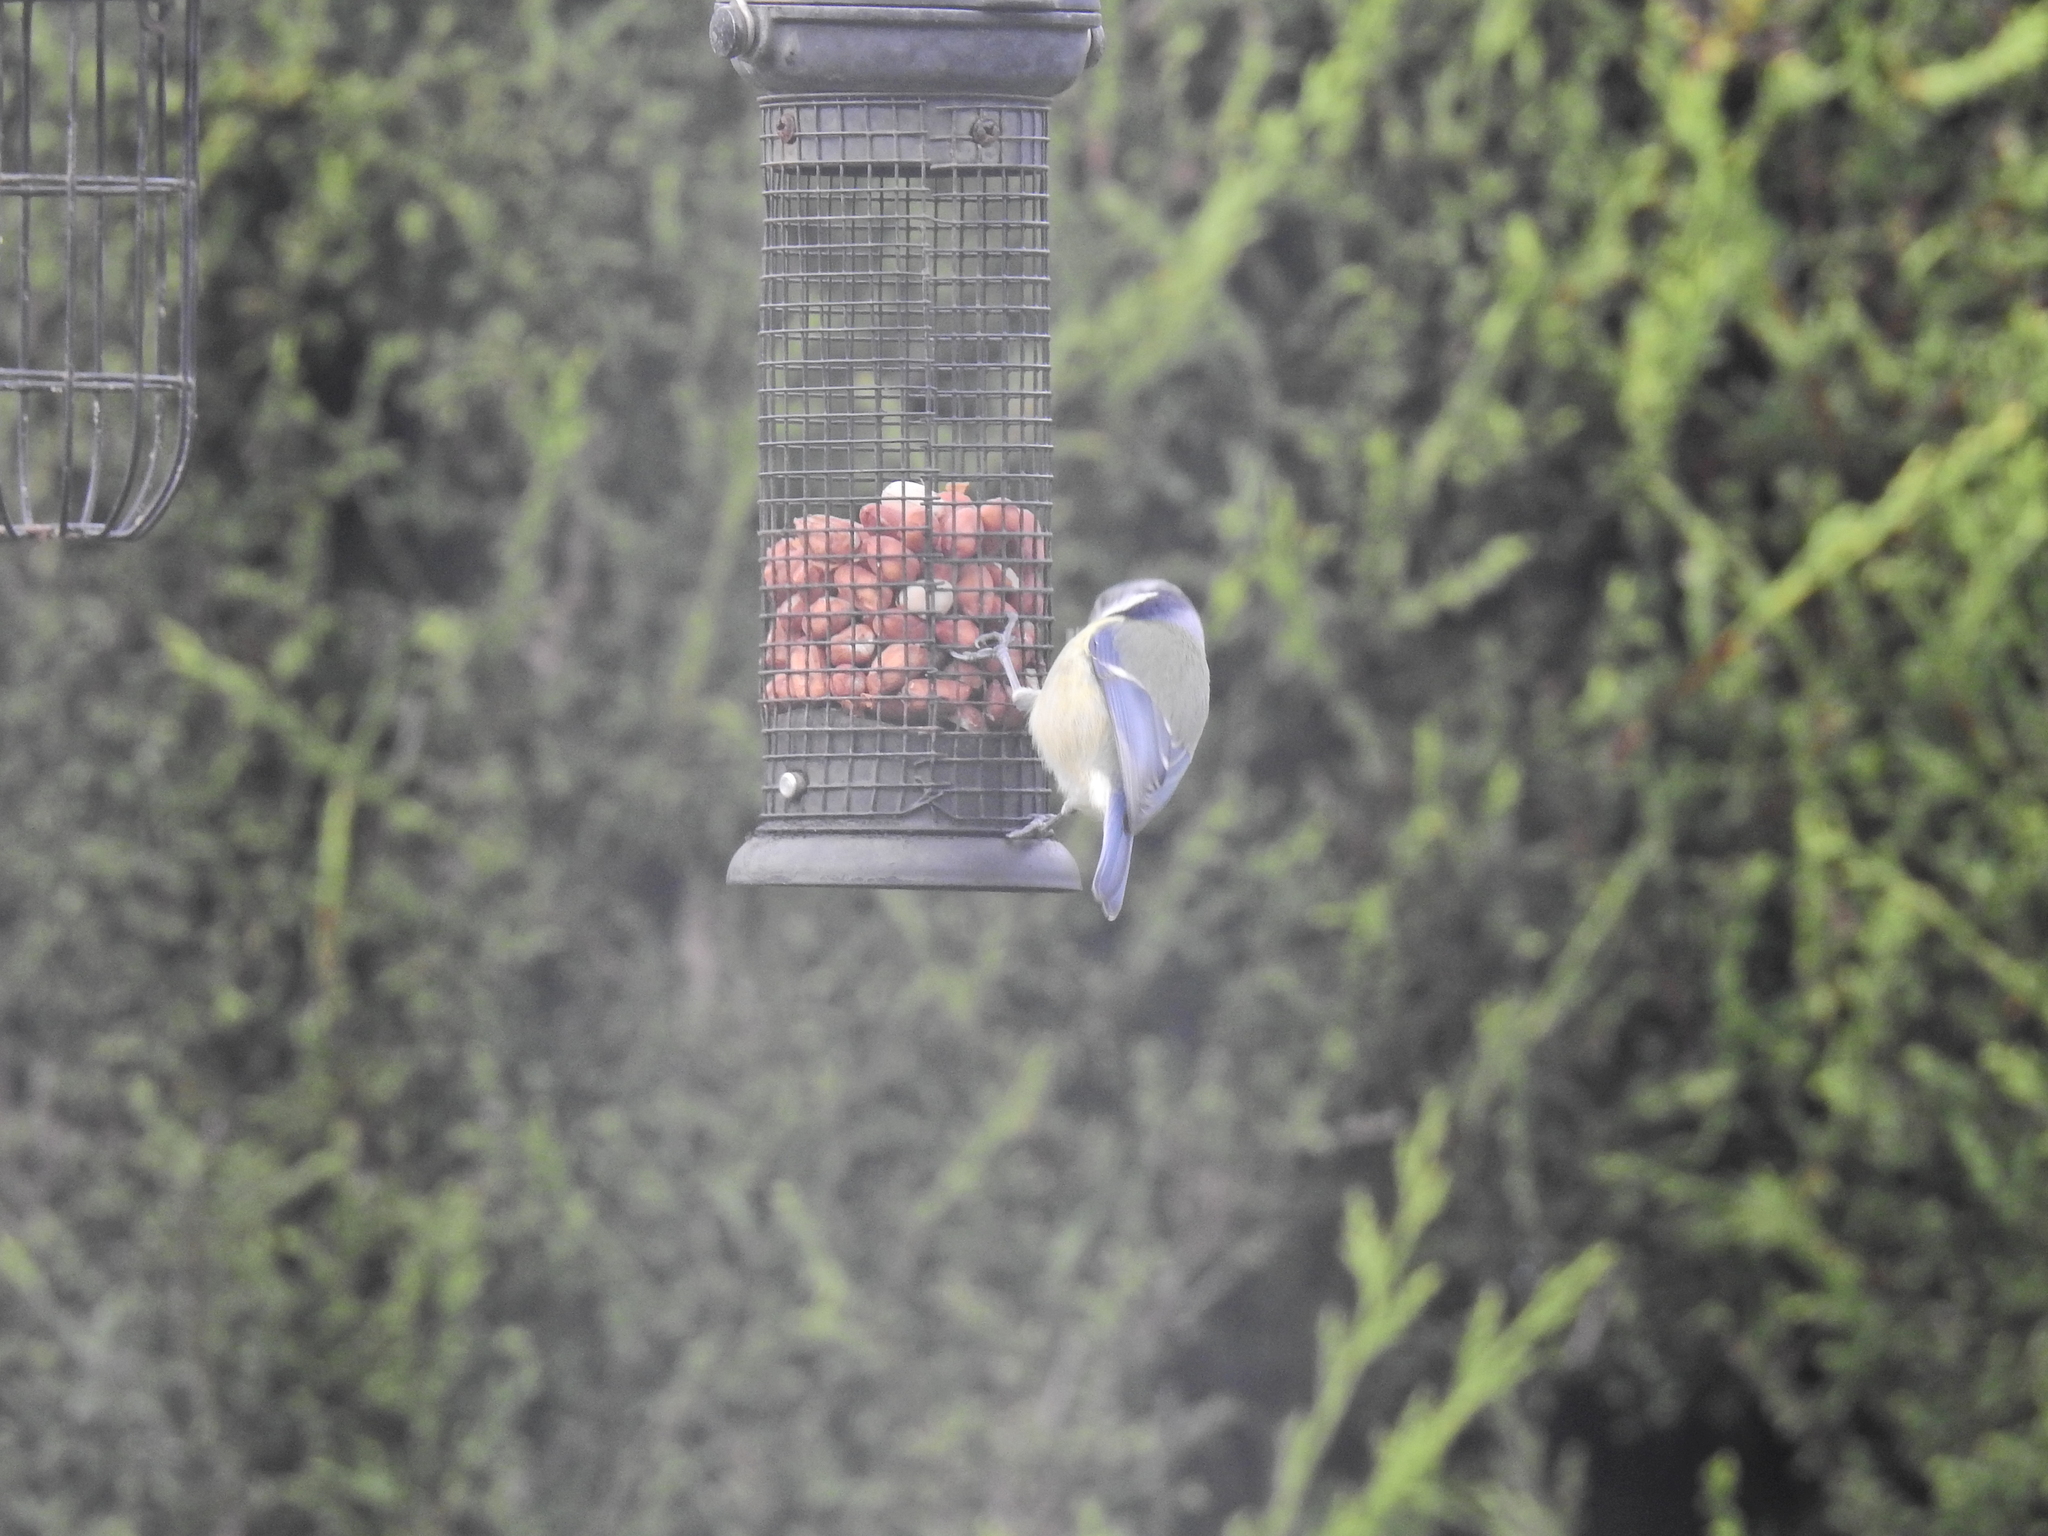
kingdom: Animalia
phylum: Chordata
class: Aves
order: Passeriformes
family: Paridae
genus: Cyanistes
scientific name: Cyanistes caeruleus
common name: Eurasian blue tit
